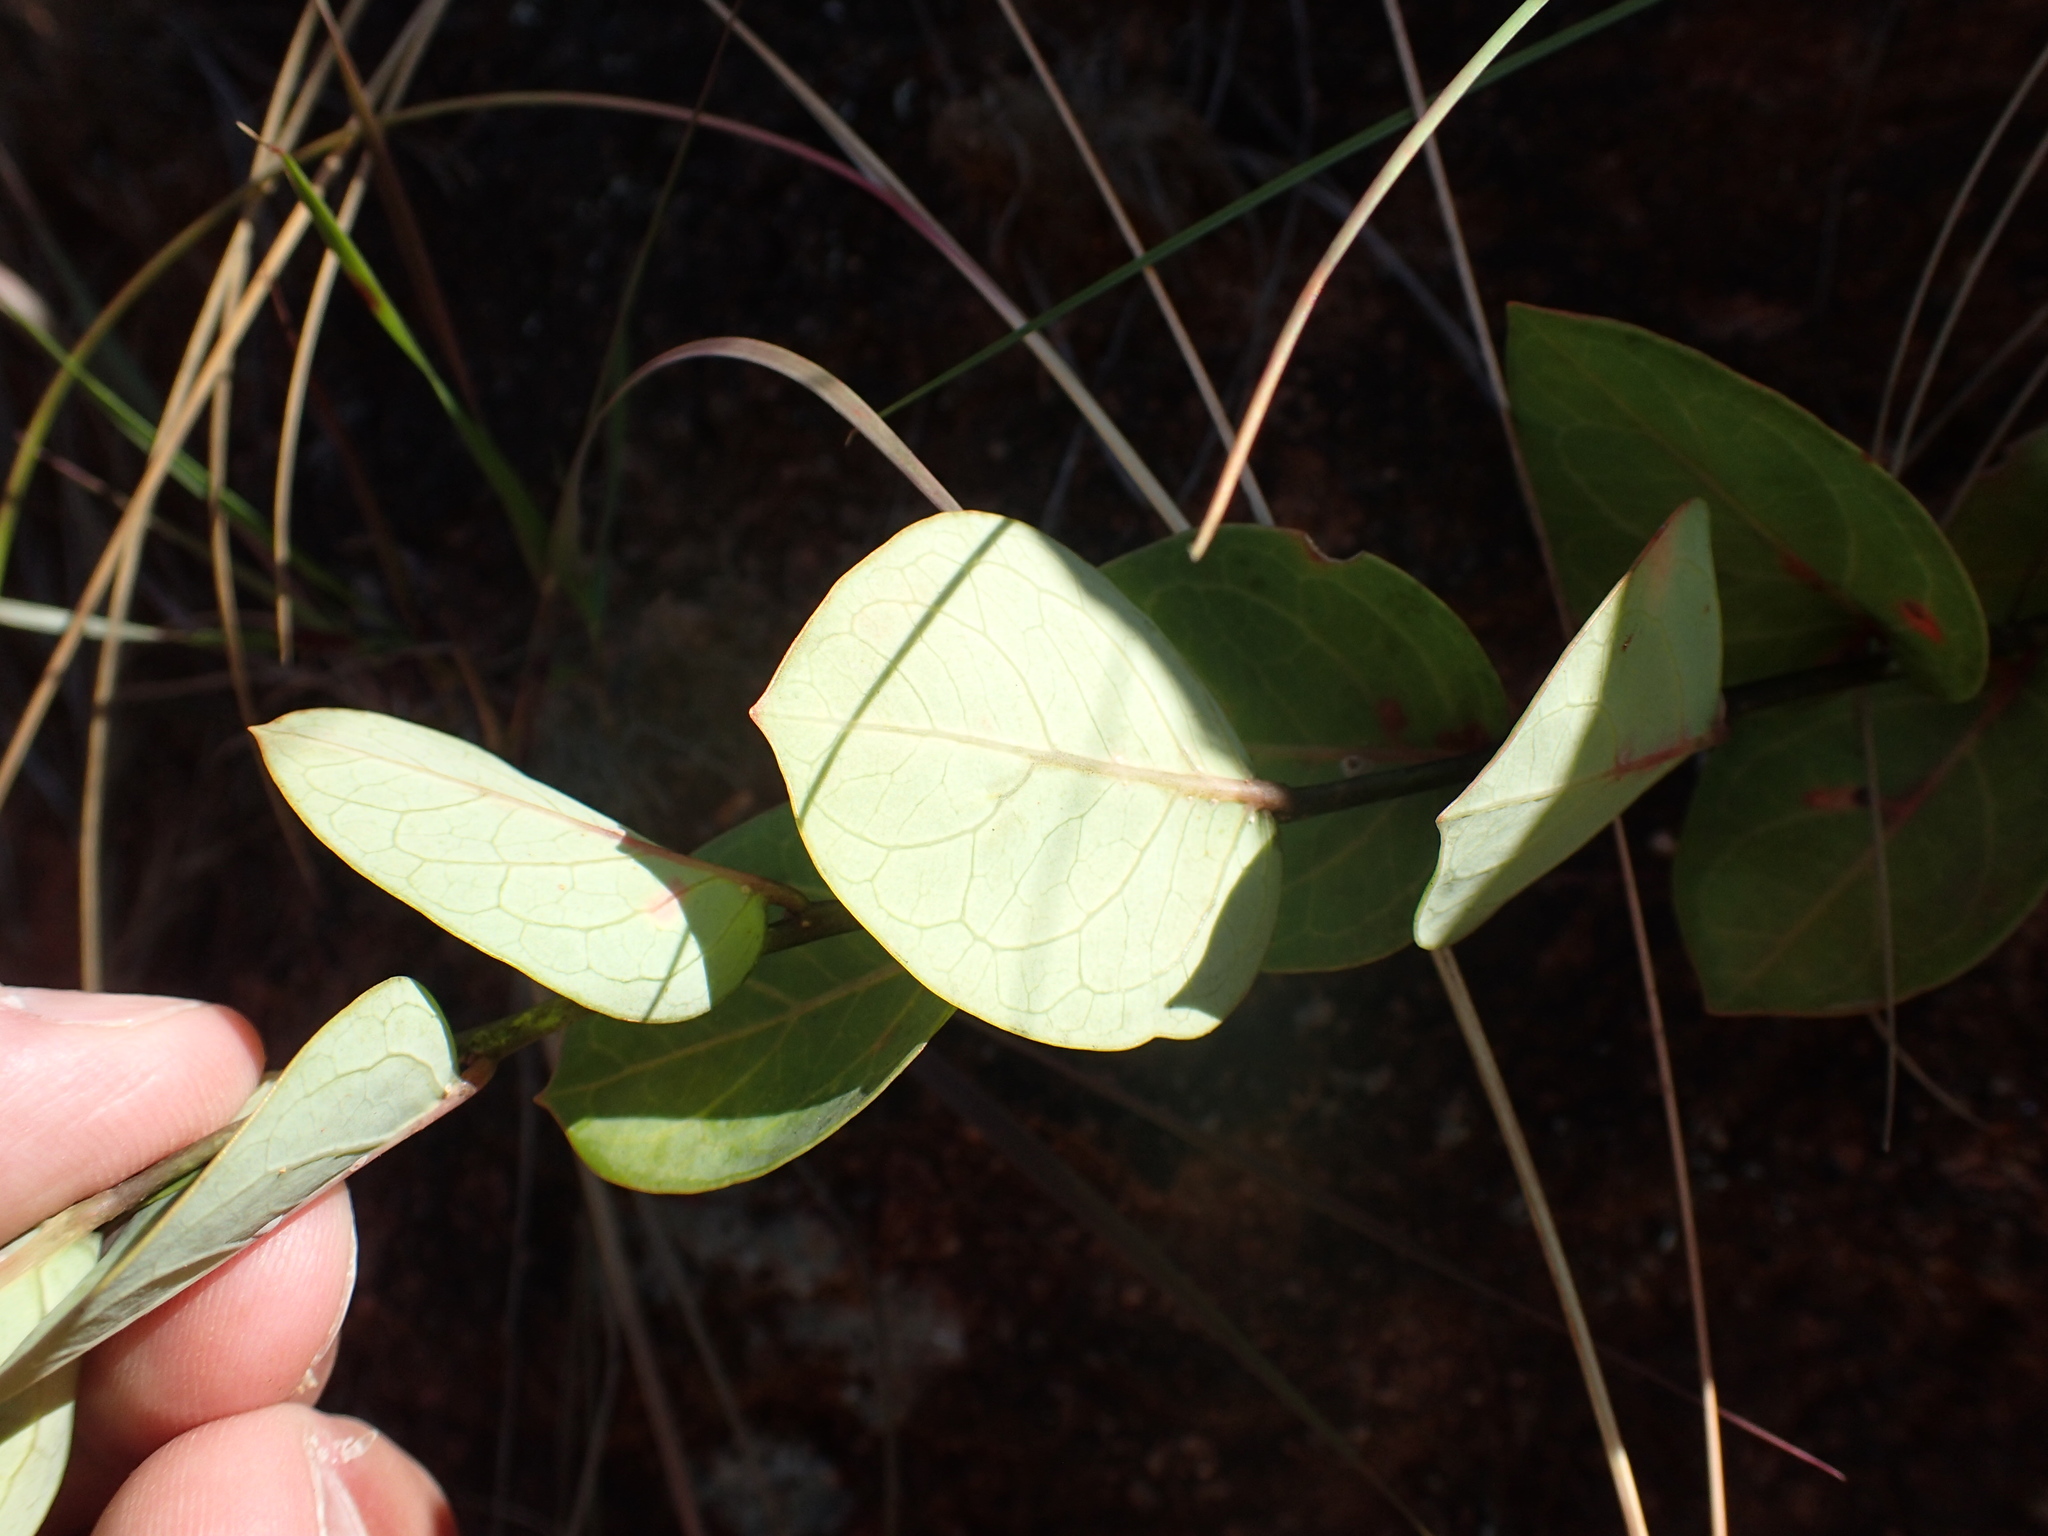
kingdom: Plantae
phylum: Tracheophyta
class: Magnoliopsida
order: Malpighiales
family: Peraceae
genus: Clutia
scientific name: Clutia cordata
